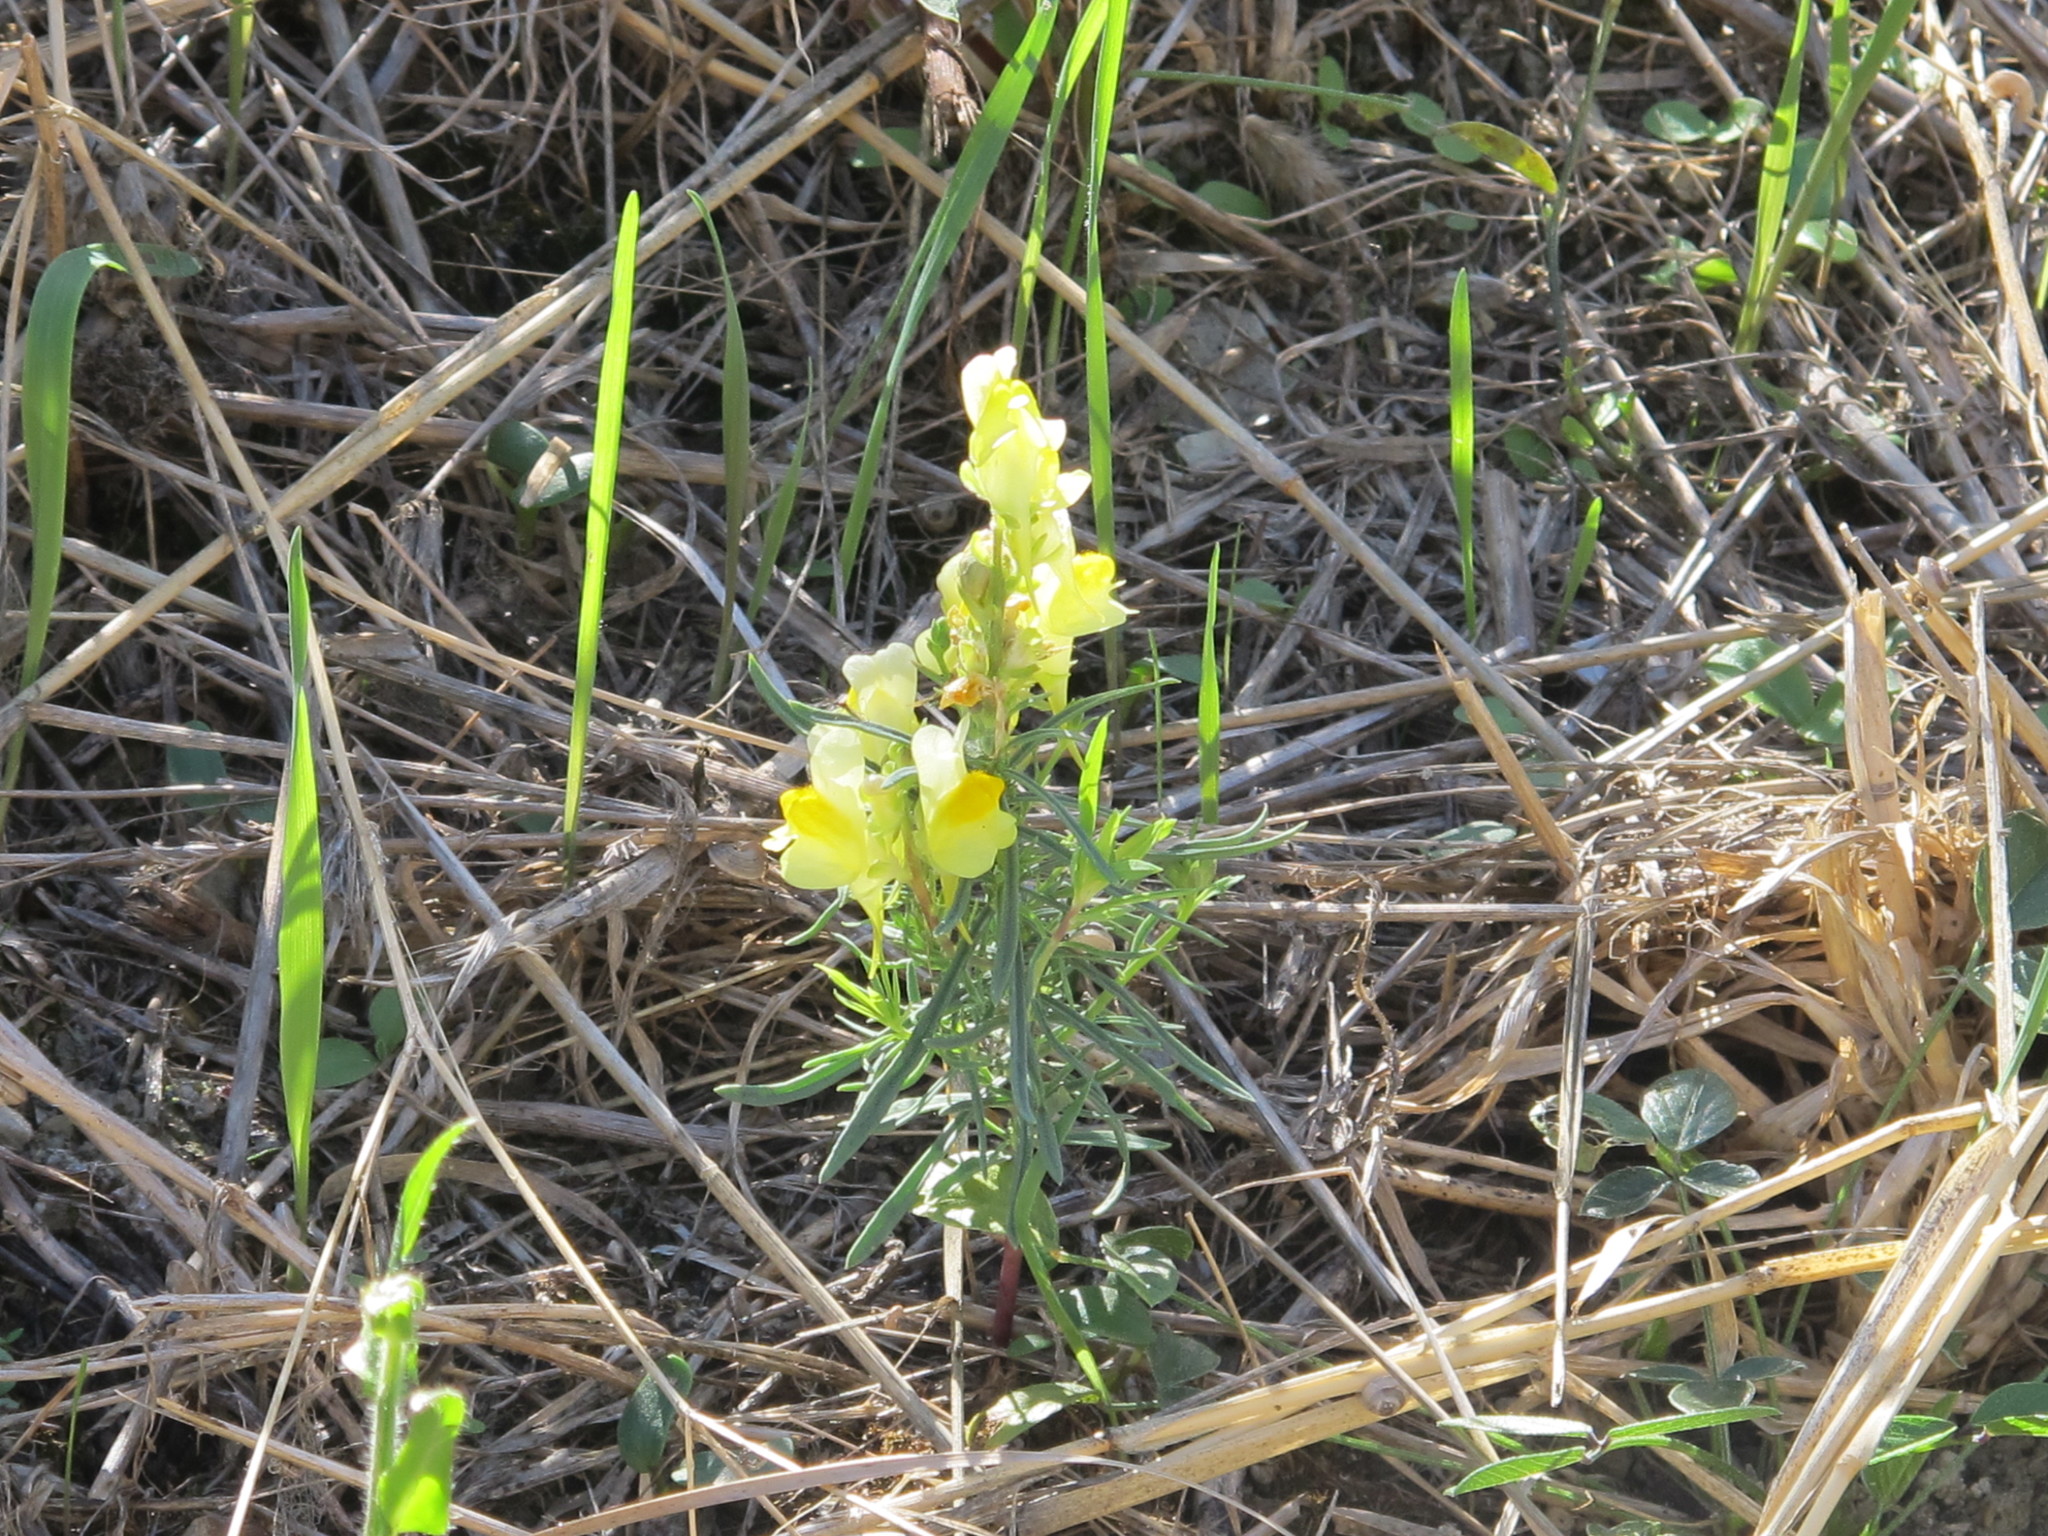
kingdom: Plantae
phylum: Tracheophyta
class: Magnoliopsida
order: Lamiales
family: Plantaginaceae
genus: Linaria
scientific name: Linaria vulgaris
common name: Butter and eggs
